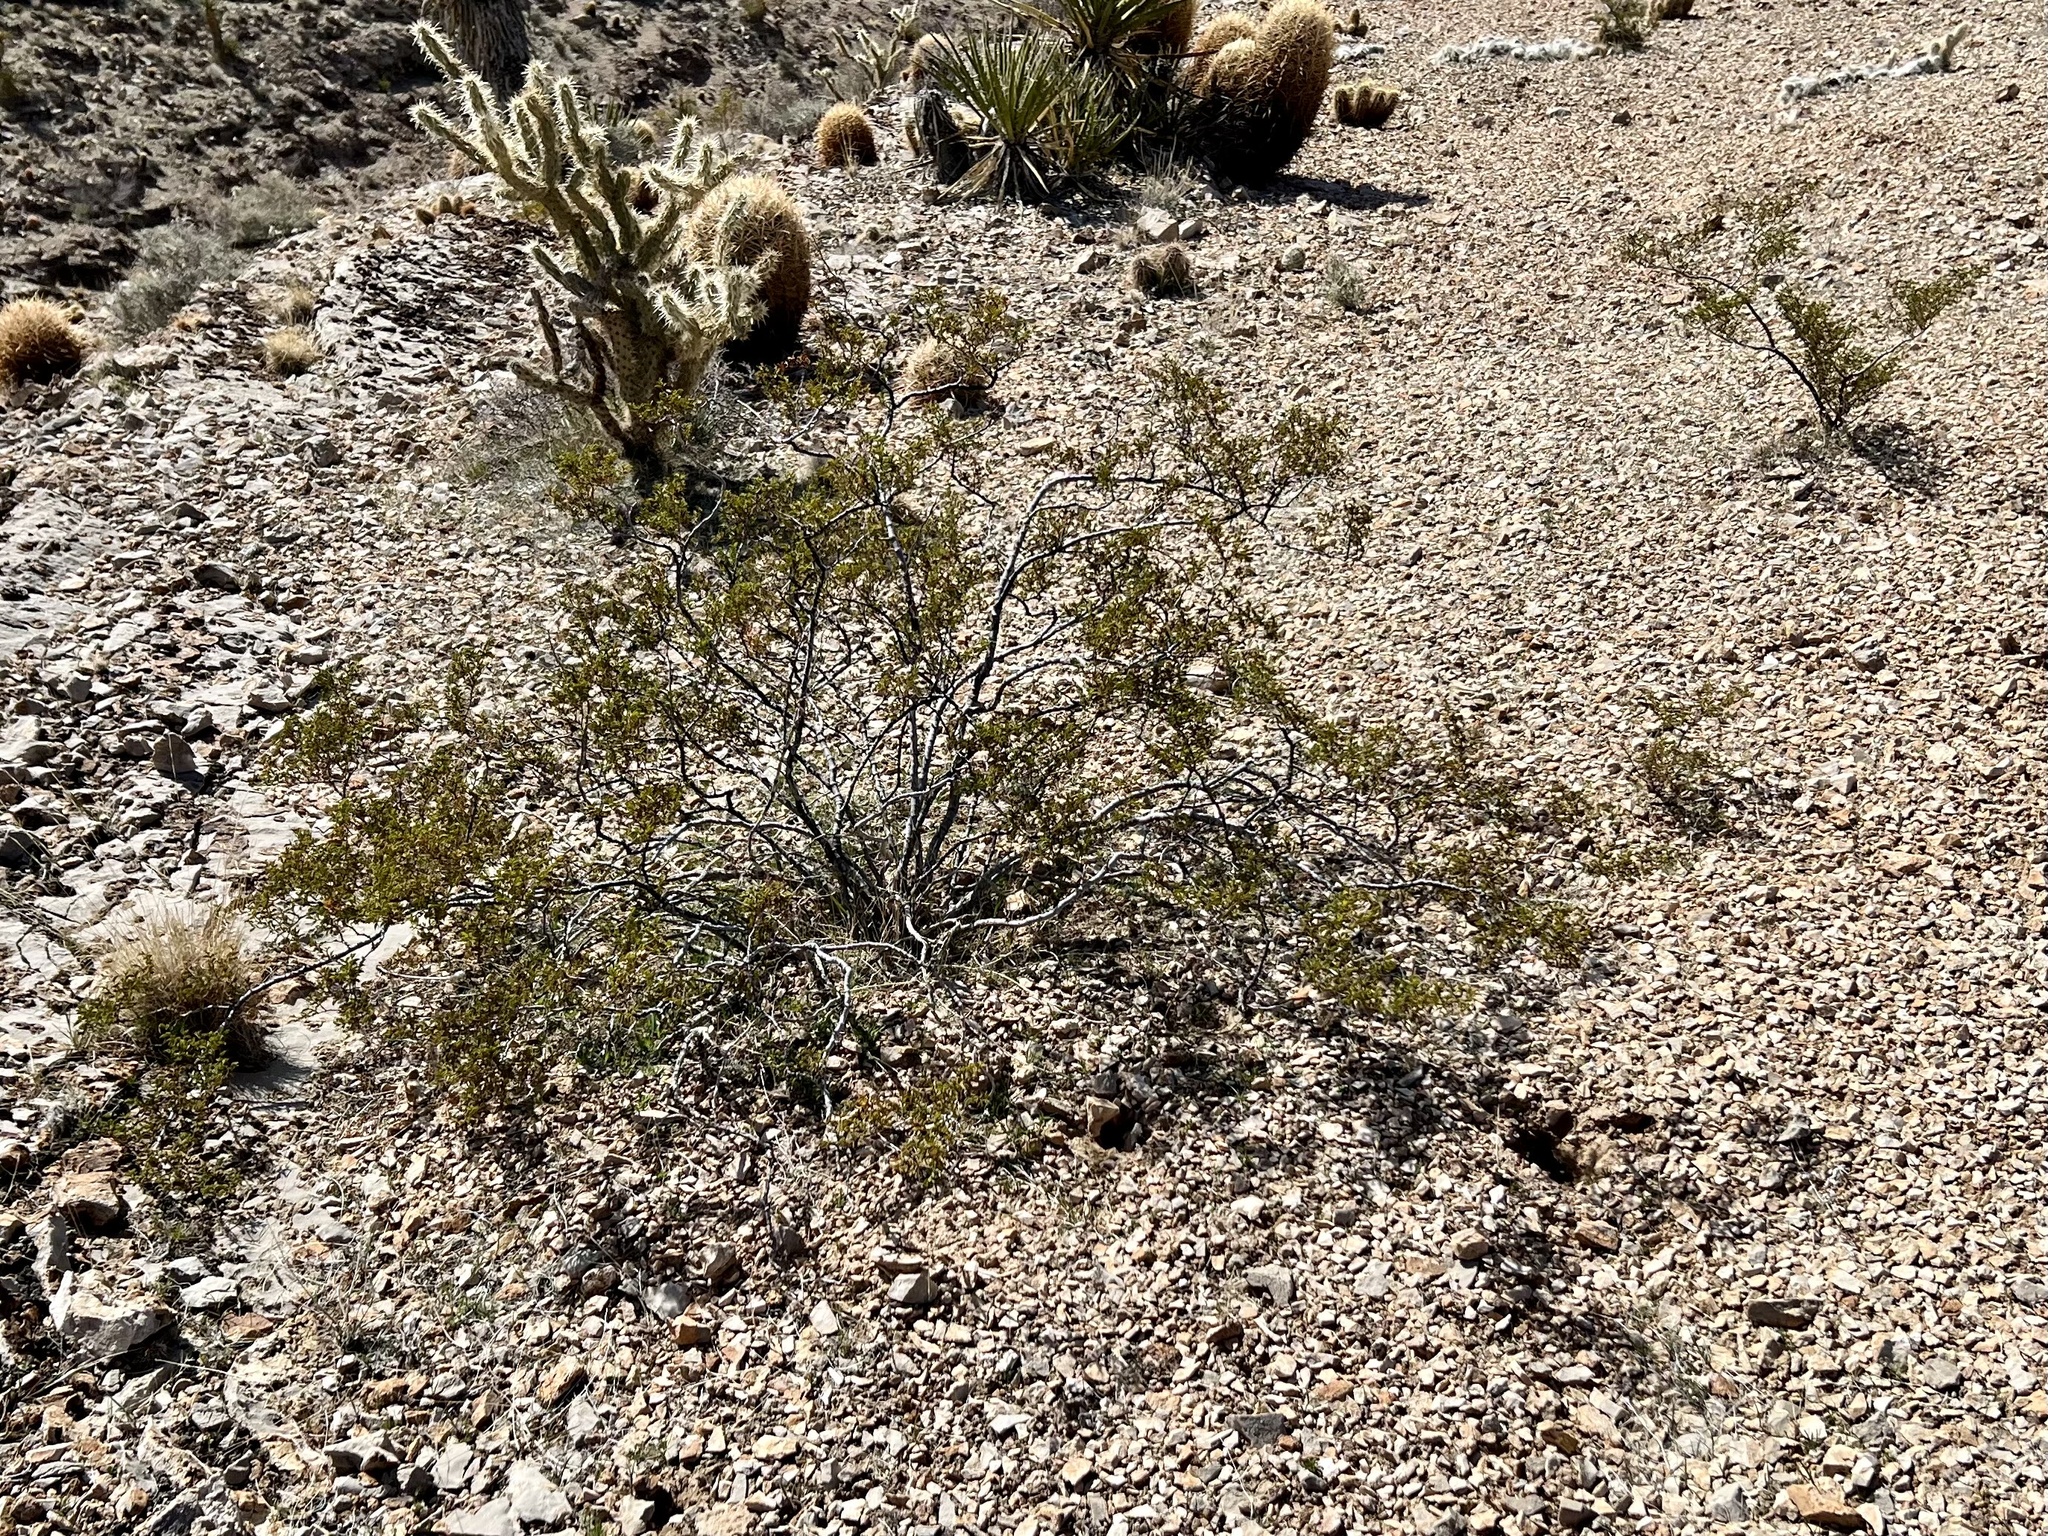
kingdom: Plantae
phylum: Tracheophyta
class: Magnoliopsida
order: Zygophyllales
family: Zygophyllaceae
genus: Larrea
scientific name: Larrea tridentata
